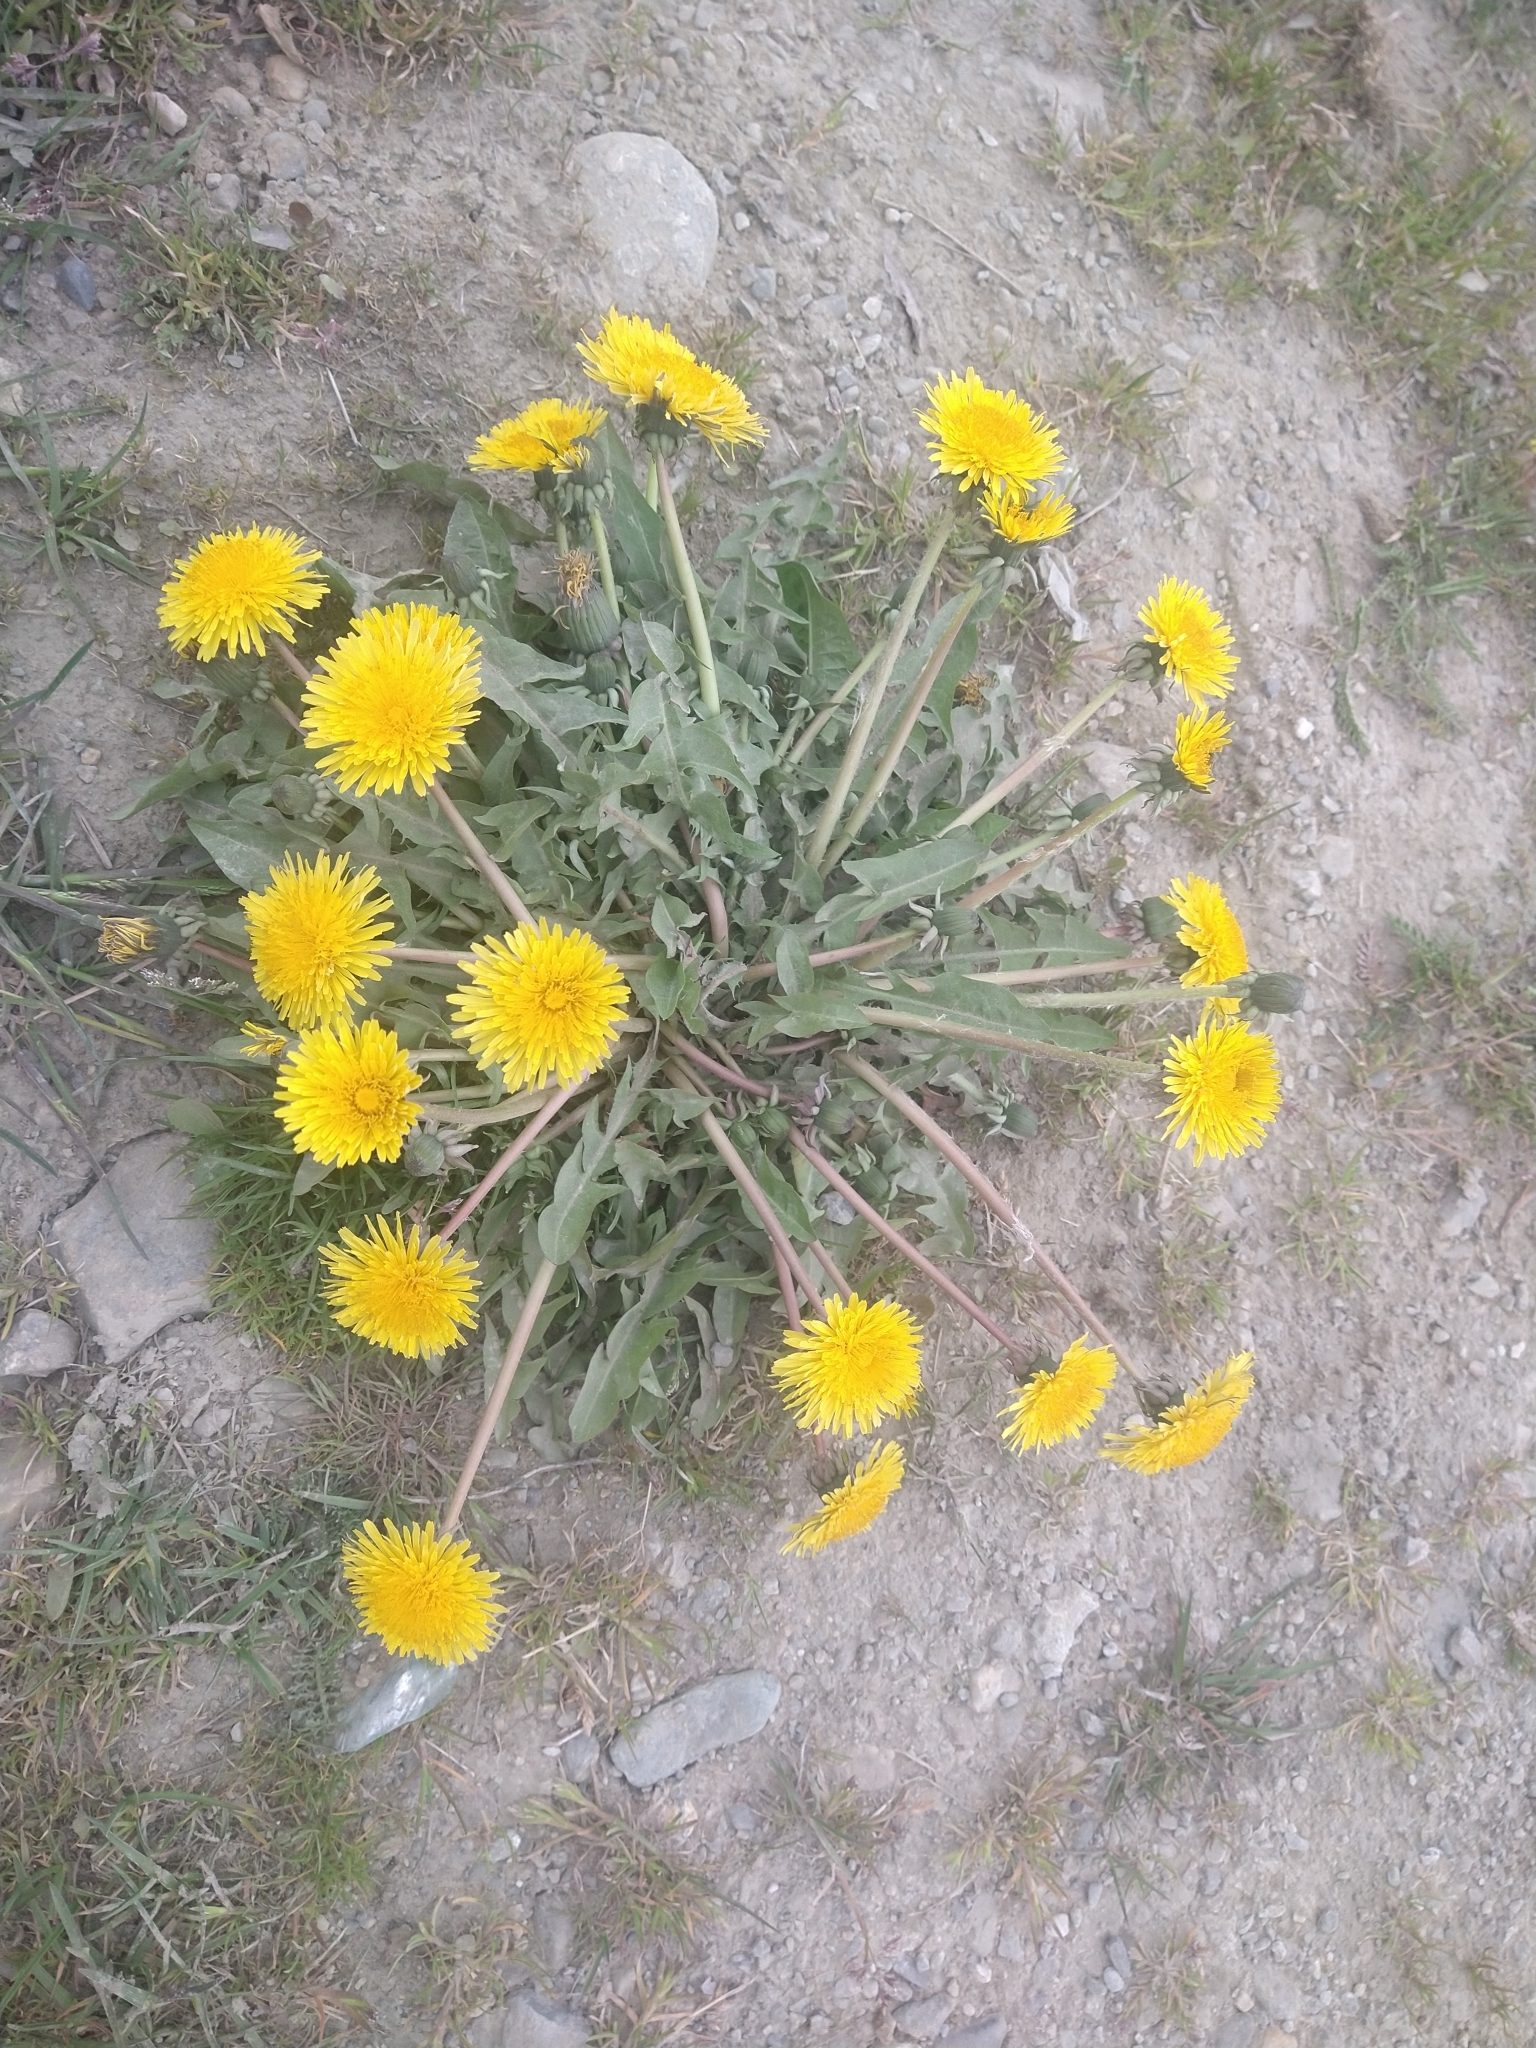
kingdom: Plantae
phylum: Tracheophyta
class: Magnoliopsida
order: Asterales
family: Asteraceae
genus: Taraxacum
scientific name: Taraxacum officinale
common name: Common dandelion
